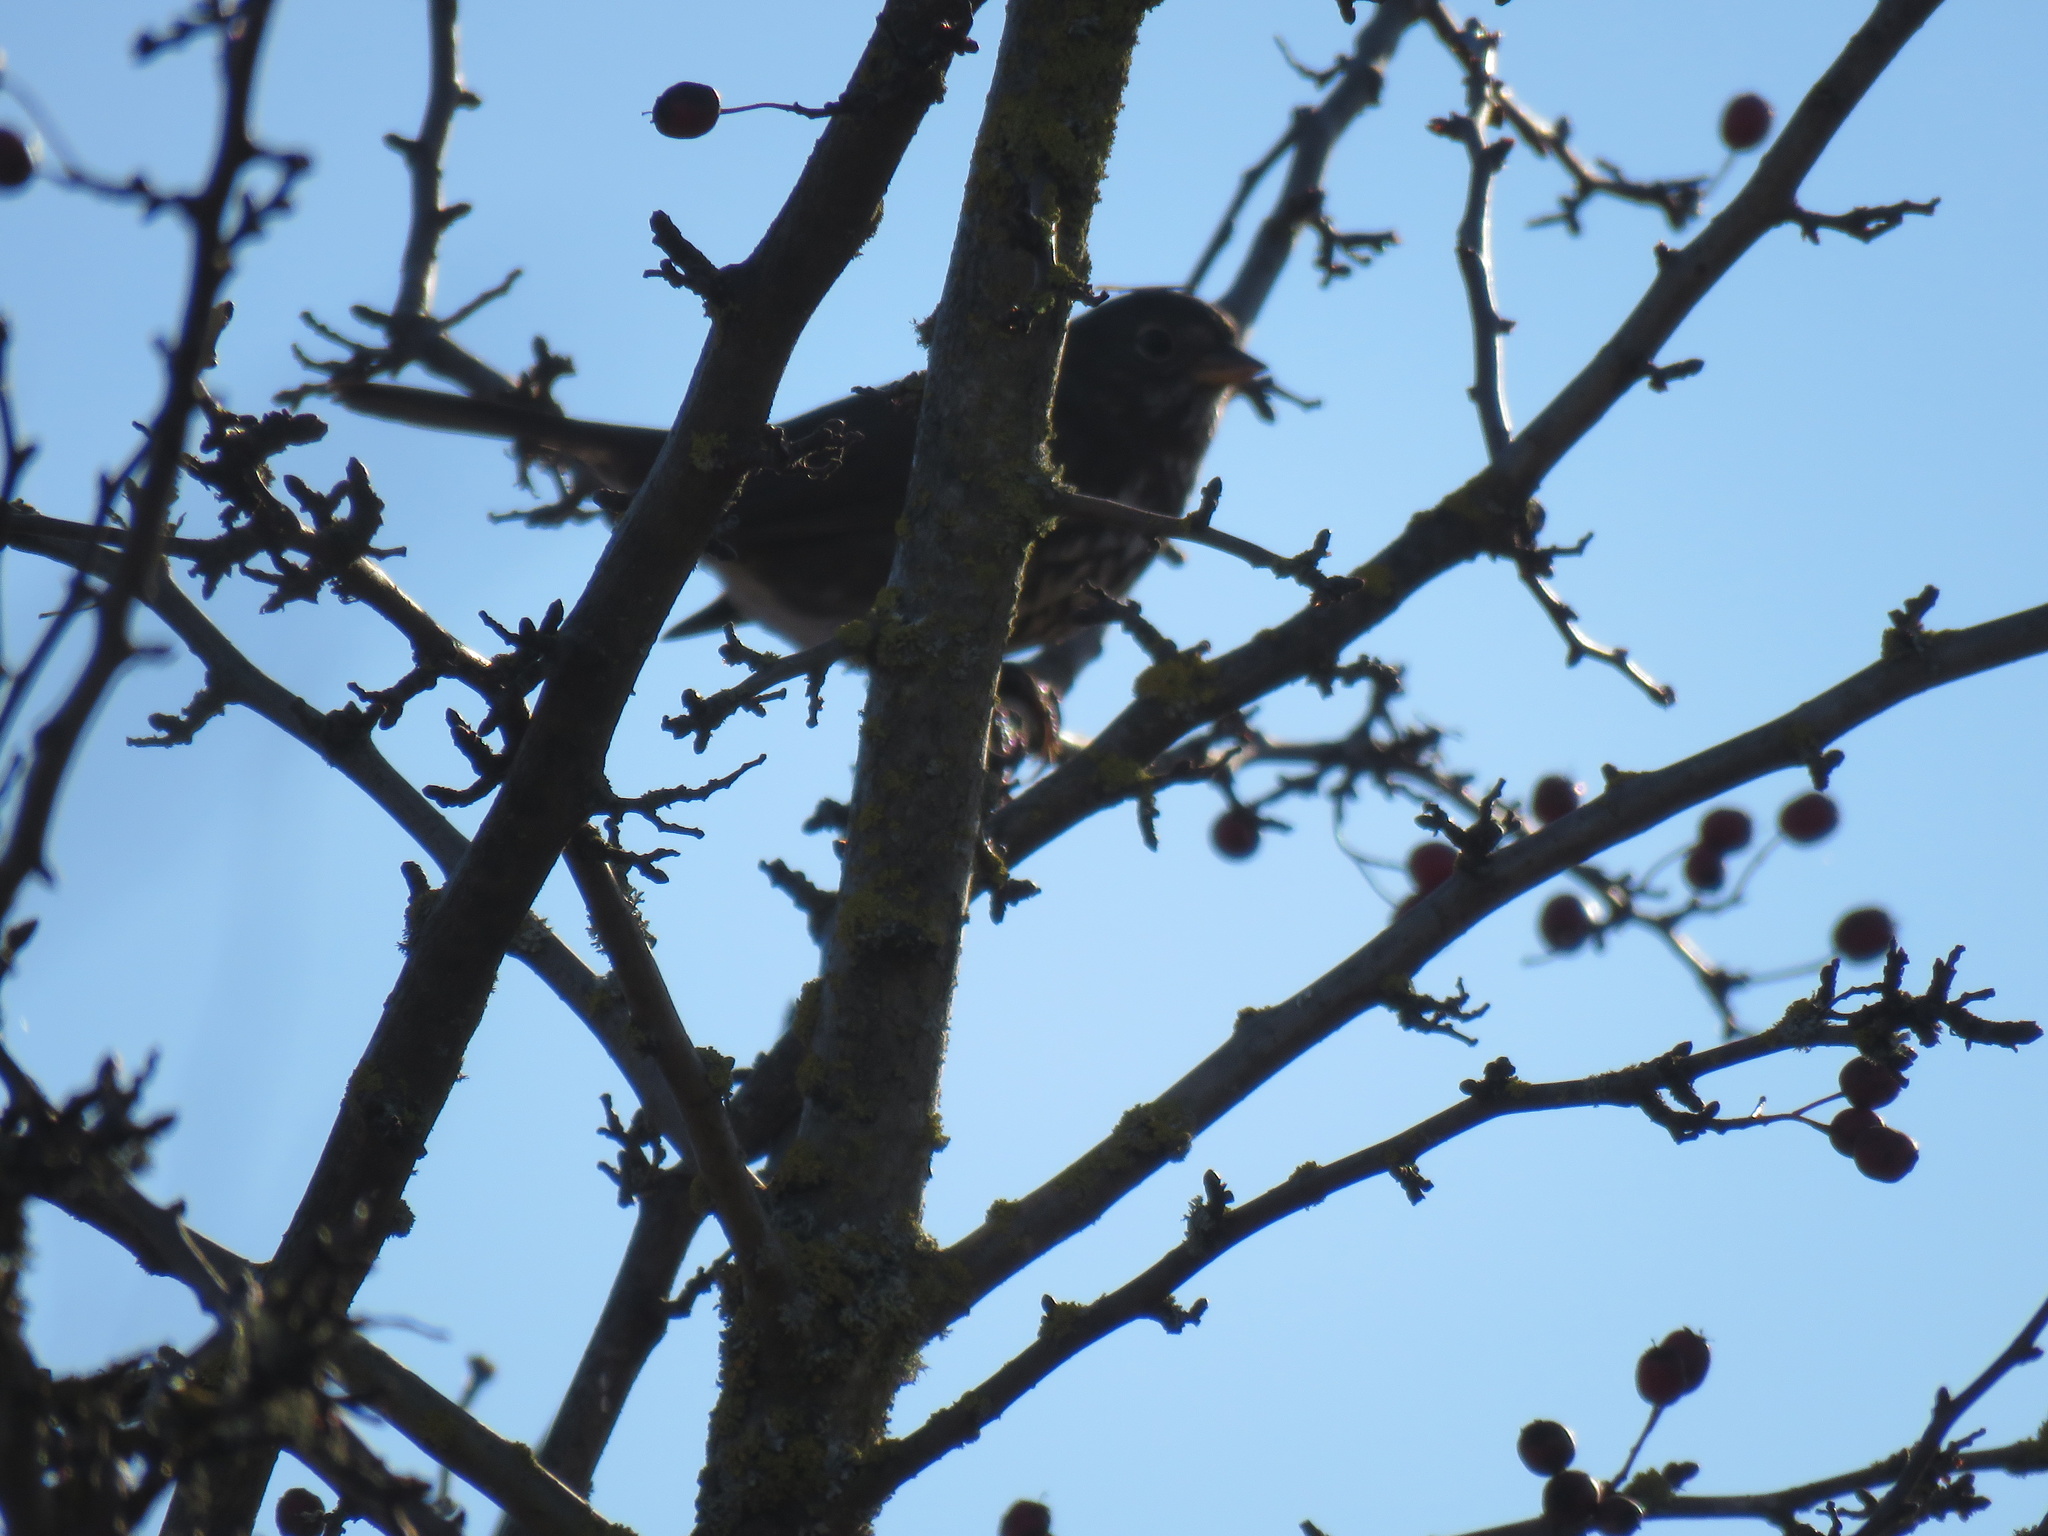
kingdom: Animalia
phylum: Chordata
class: Aves
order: Passeriformes
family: Passerellidae
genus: Passerella
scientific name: Passerella iliaca
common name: Fox sparrow
